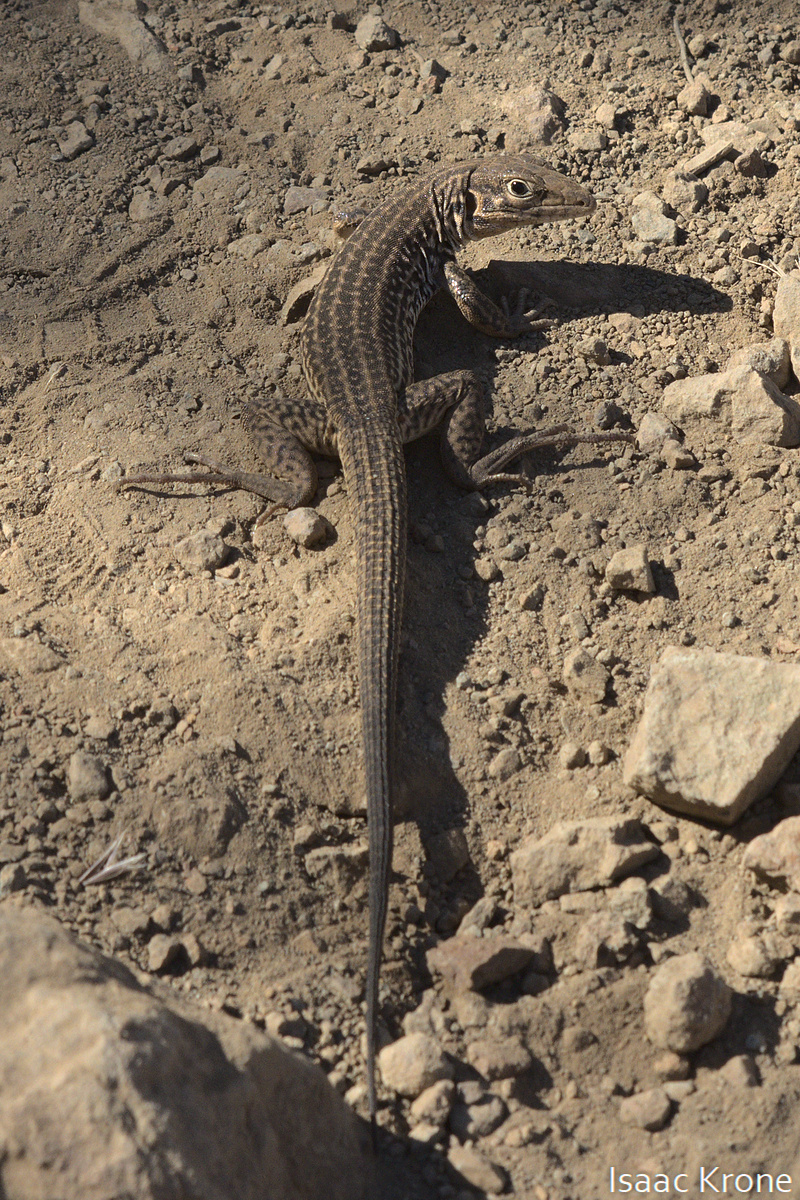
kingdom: Animalia
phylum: Chordata
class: Squamata
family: Teiidae
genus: Aspidoscelis
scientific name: Aspidoscelis tigris
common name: Tiger whiptail
